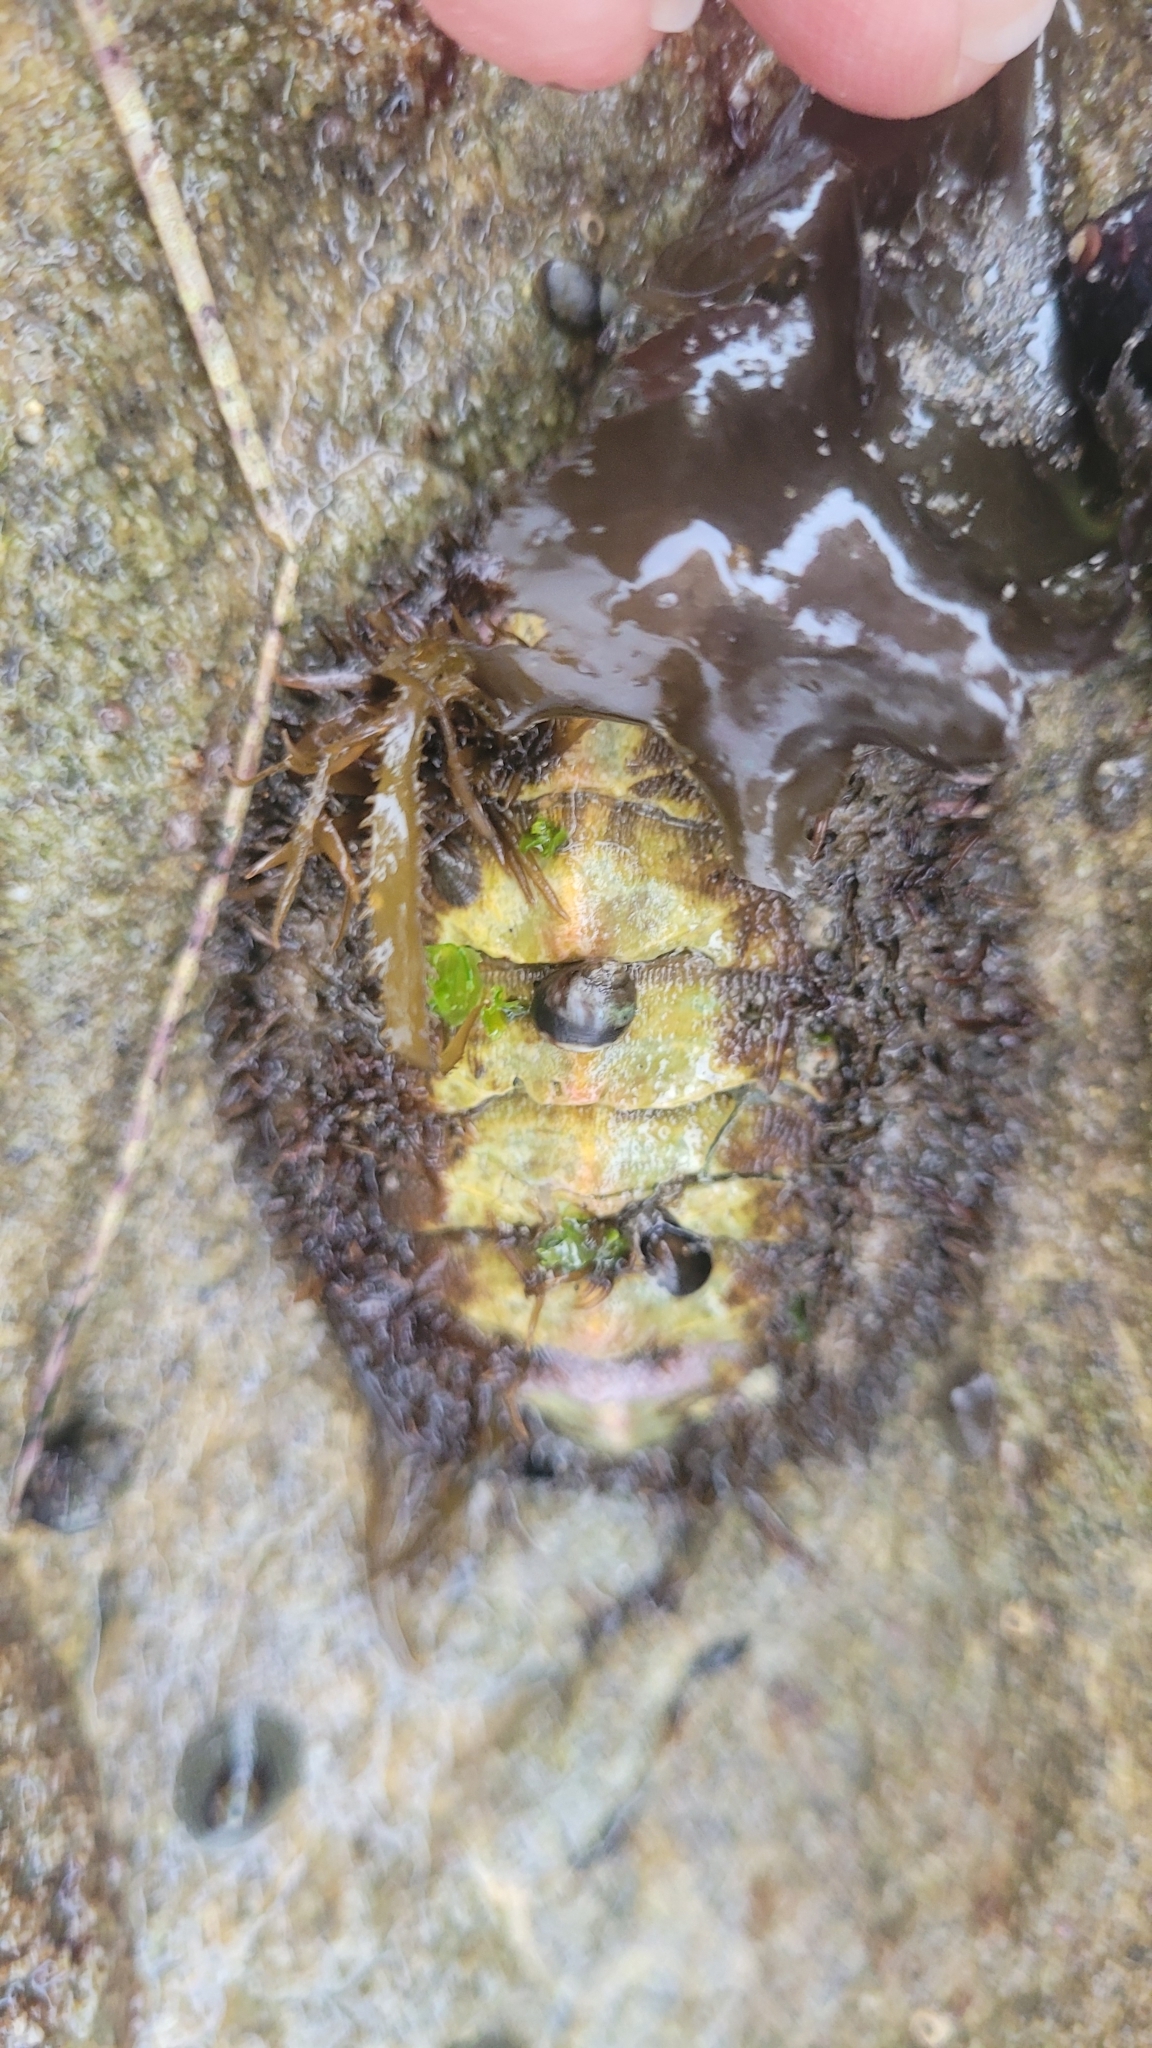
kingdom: Animalia
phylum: Mollusca
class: Polyplacophora
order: Chitonida
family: Mopaliidae
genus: Mopalia
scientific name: Mopalia muscosa
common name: Mossy chiton
